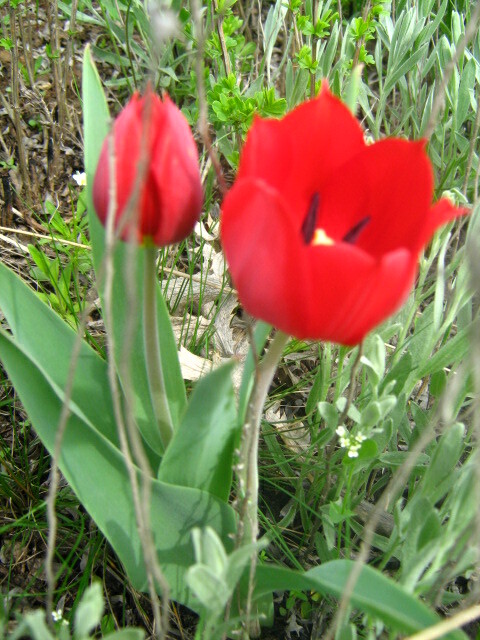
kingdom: Plantae
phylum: Tracheophyta
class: Liliopsida
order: Liliales
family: Liliaceae
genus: Tulipa
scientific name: Tulipa suaveolens
